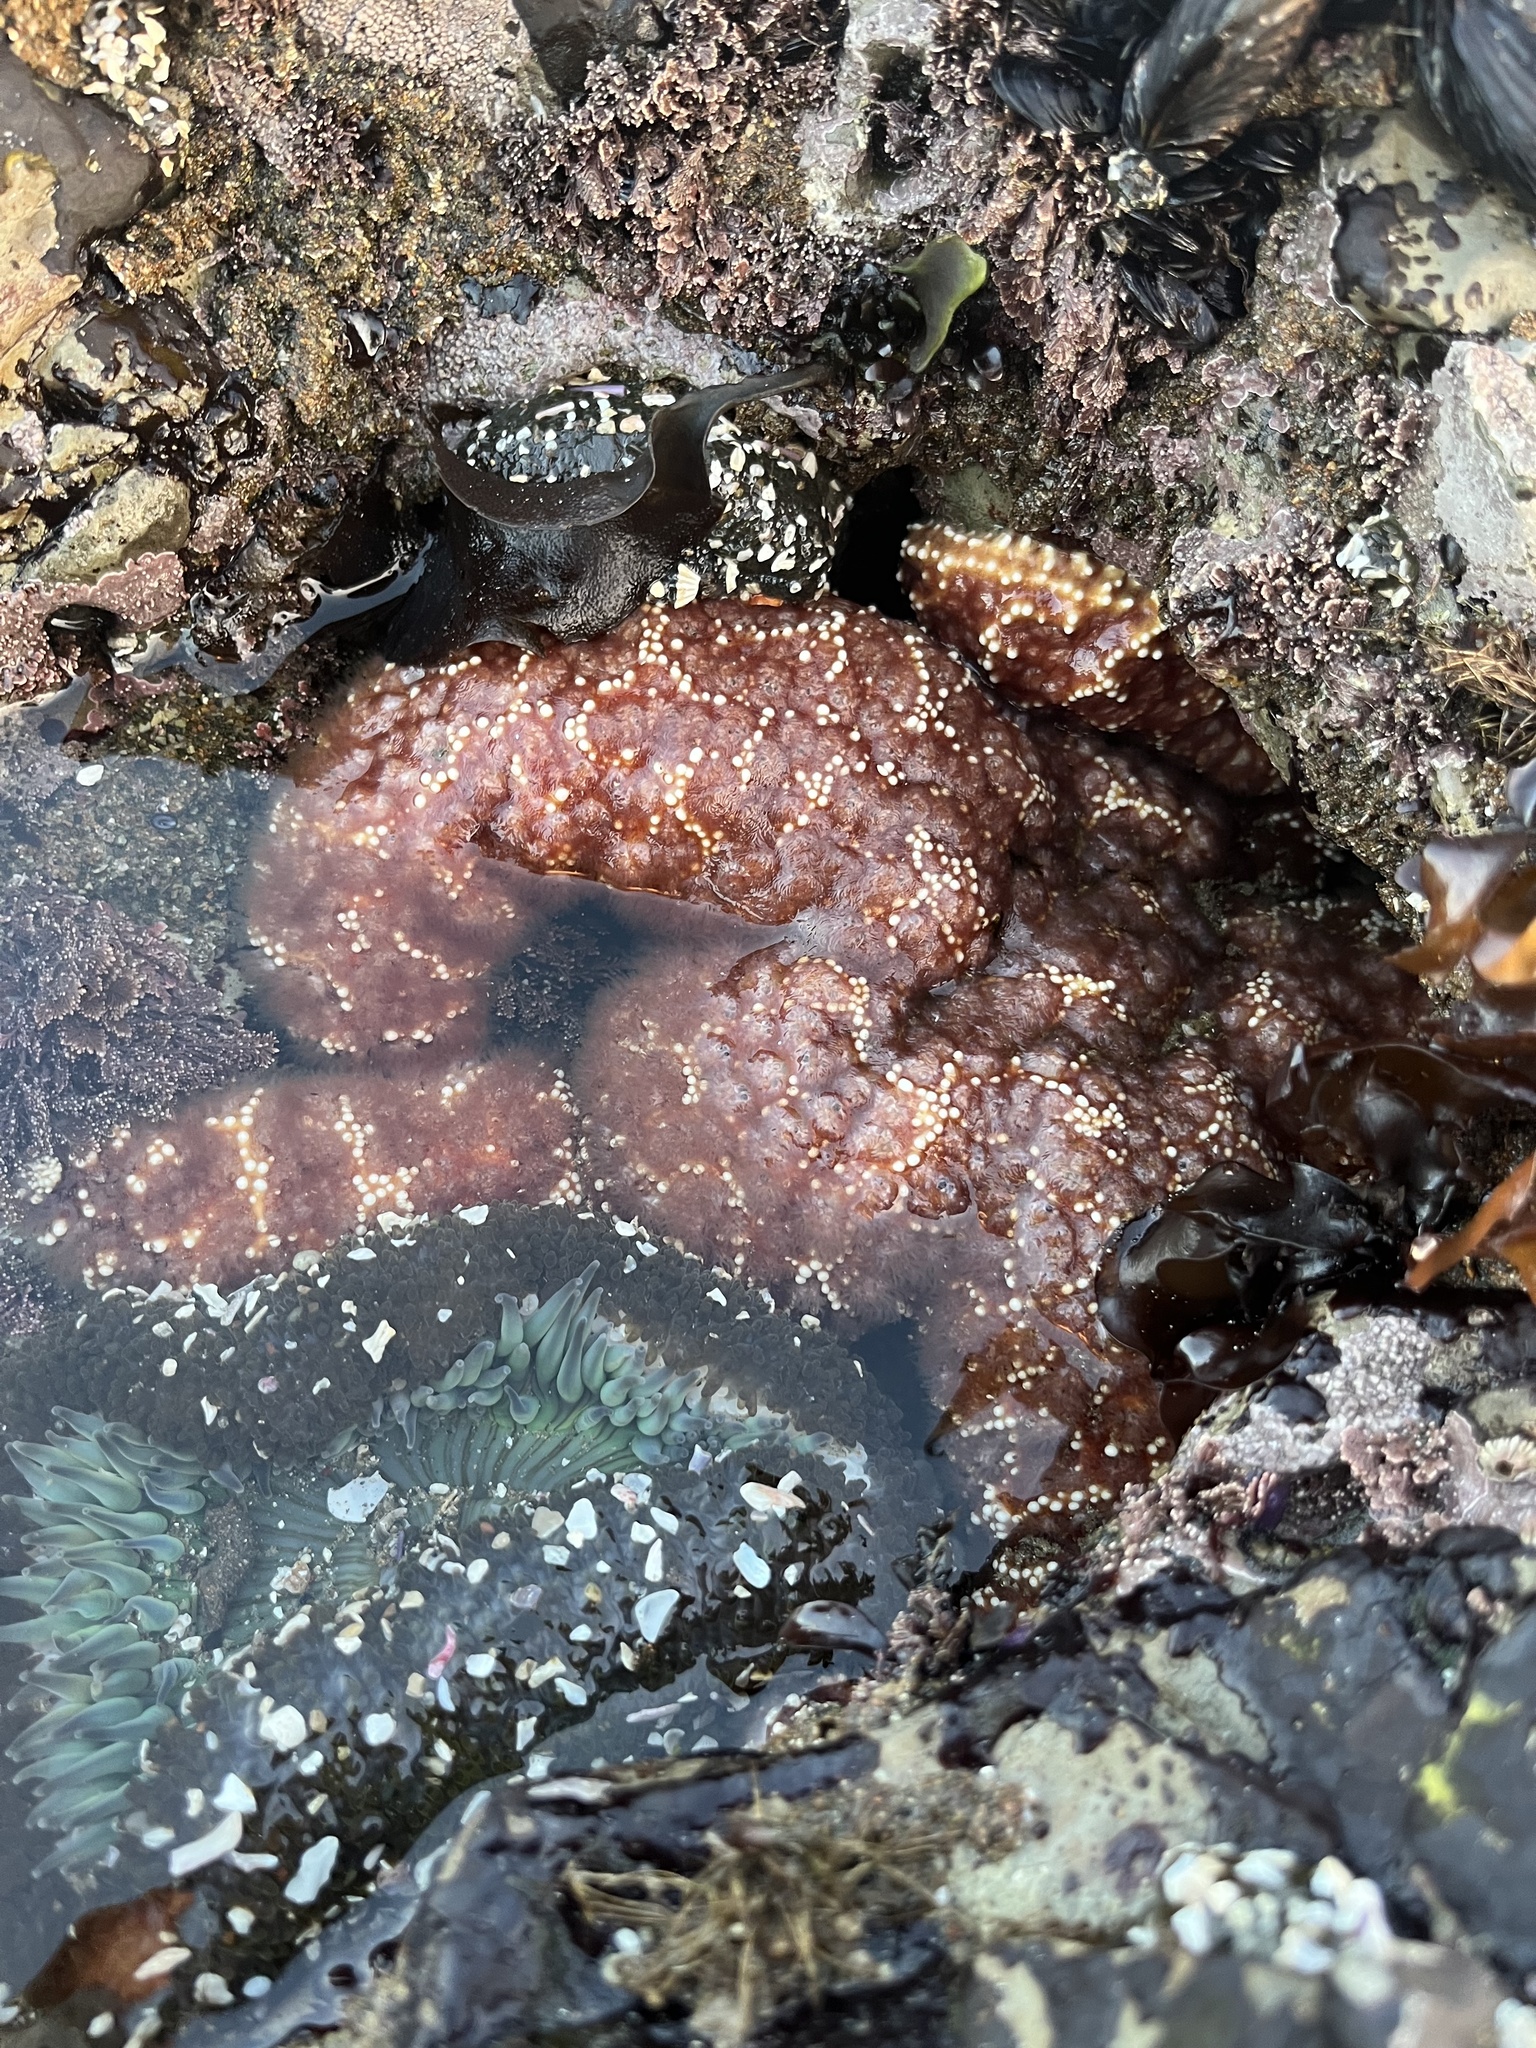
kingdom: Animalia
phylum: Echinodermata
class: Asteroidea
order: Forcipulatida
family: Asteriidae
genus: Pisaster
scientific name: Pisaster ochraceus
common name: Ochre stars
